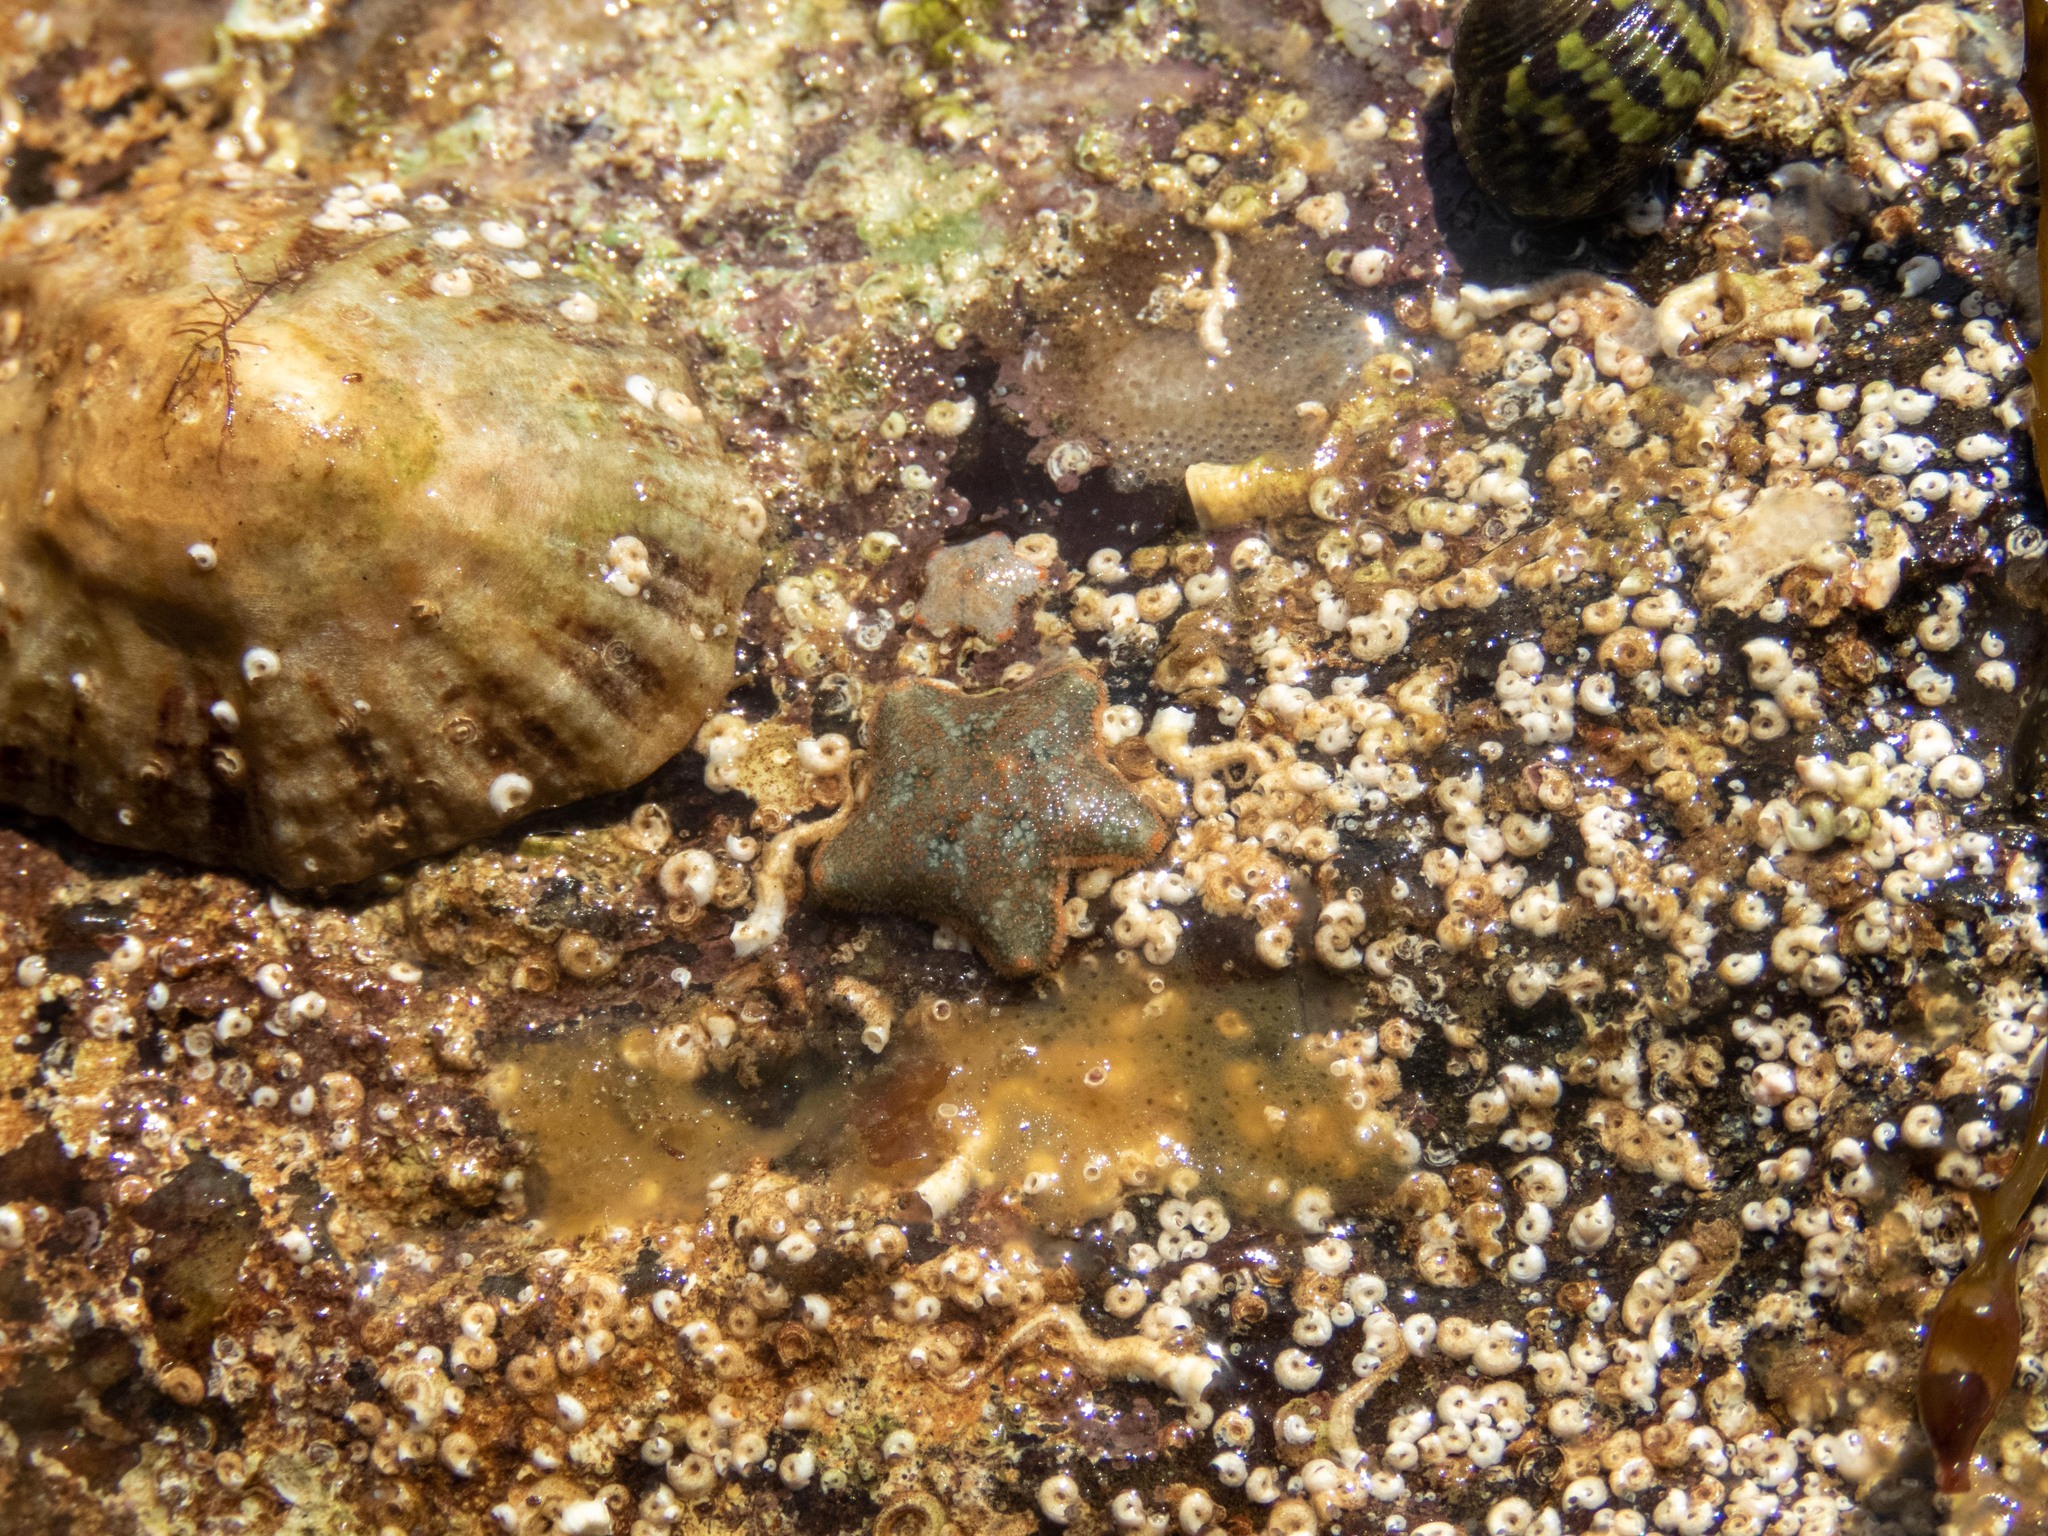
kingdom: Animalia
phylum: Echinodermata
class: Asteroidea
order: Valvatida
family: Asterinidae
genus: Asterina
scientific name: Asterina gibbosa
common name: Cushion star
